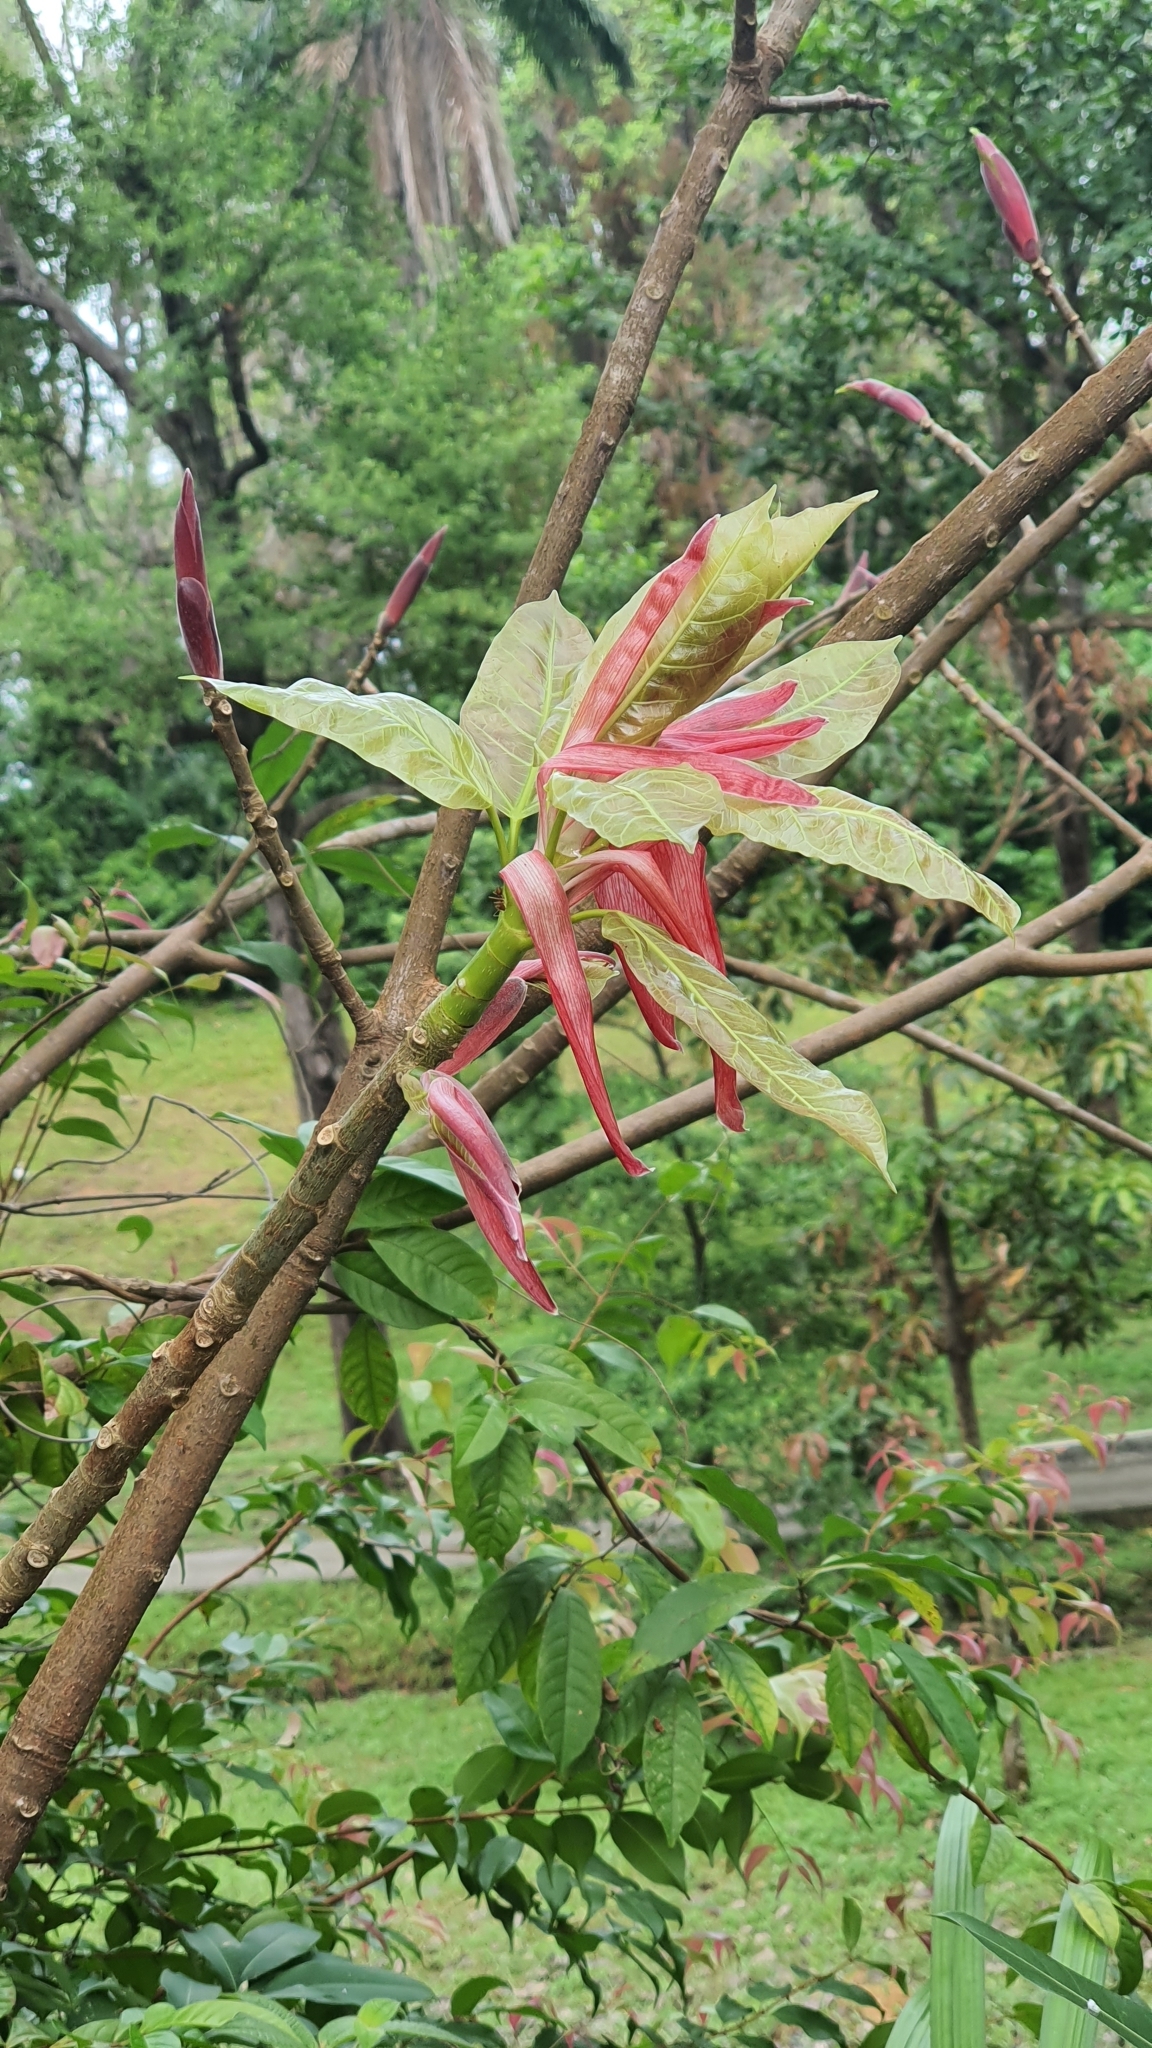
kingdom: Plantae
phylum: Tracheophyta
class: Magnoliopsida
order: Rosales
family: Moraceae
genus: Ficus
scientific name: Ficus superba
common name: Cedar fig
